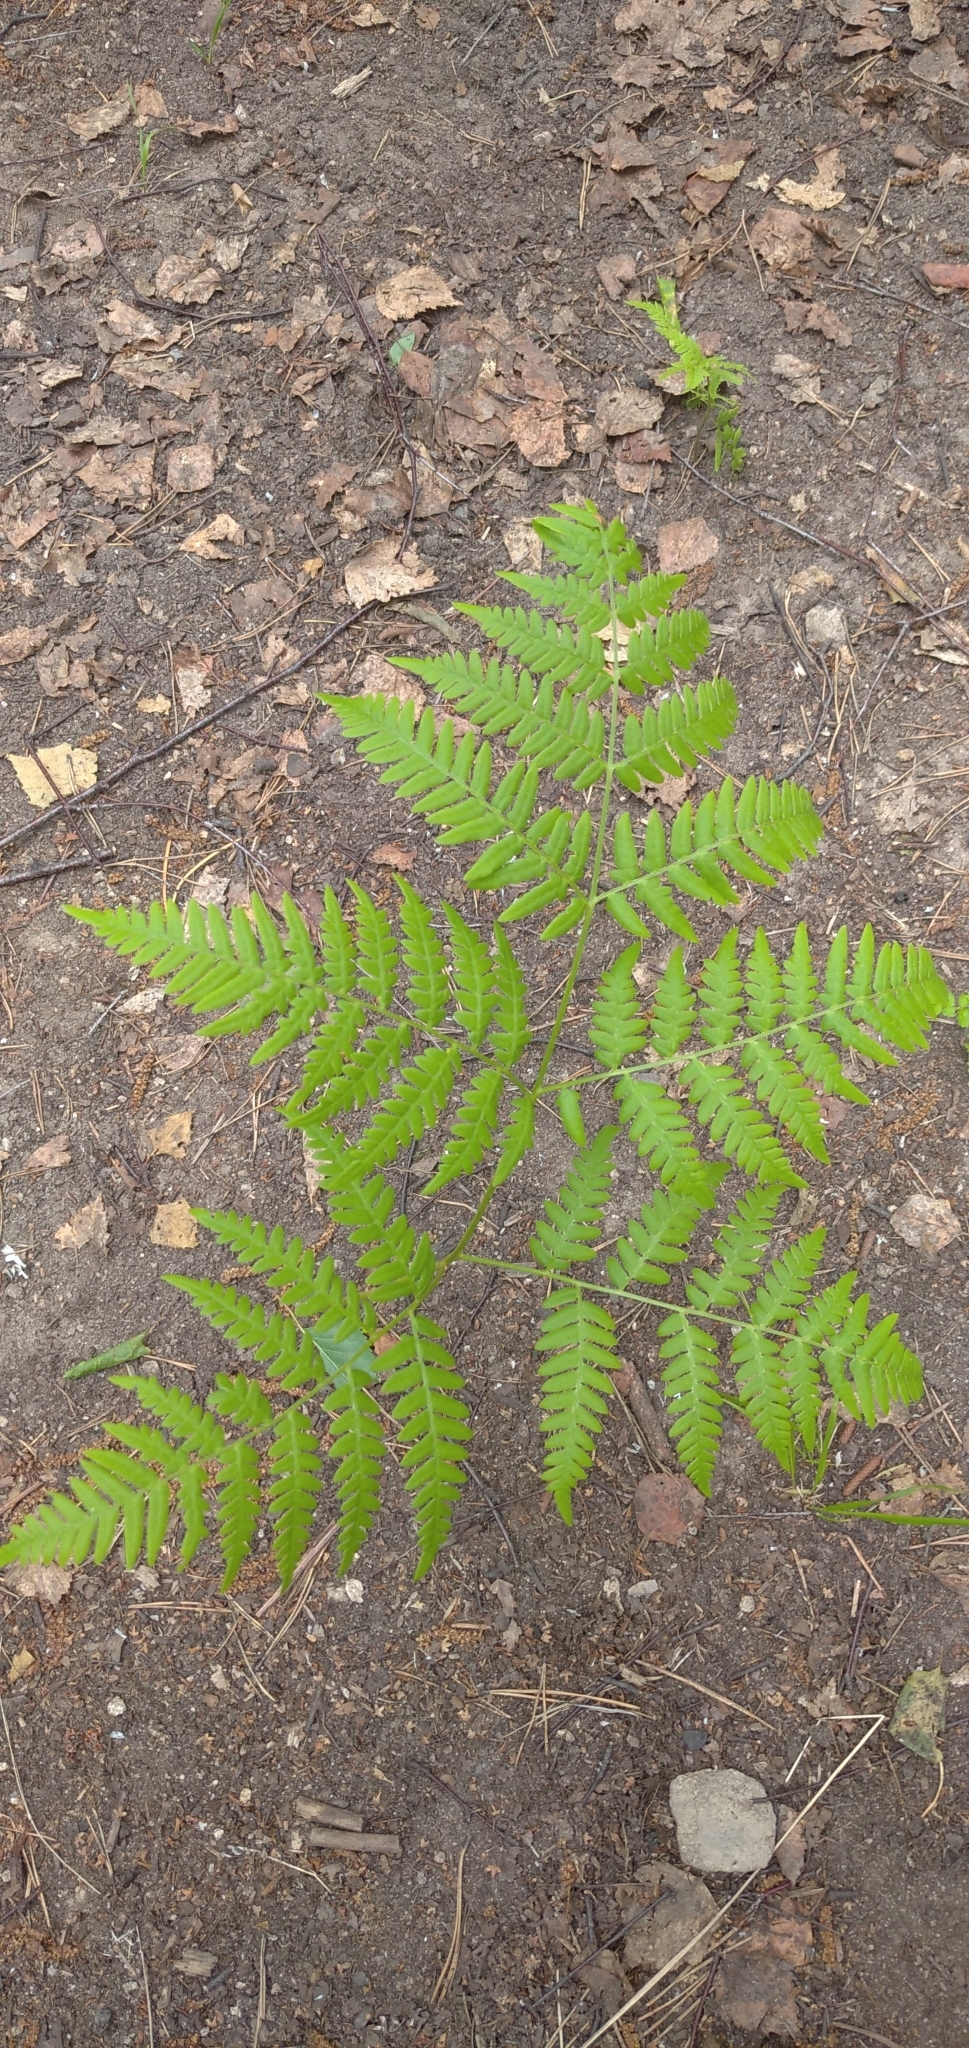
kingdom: Plantae
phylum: Tracheophyta
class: Polypodiopsida
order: Polypodiales
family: Dennstaedtiaceae
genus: Pteridium
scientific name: Pteridium aquilinum
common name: Bracken
